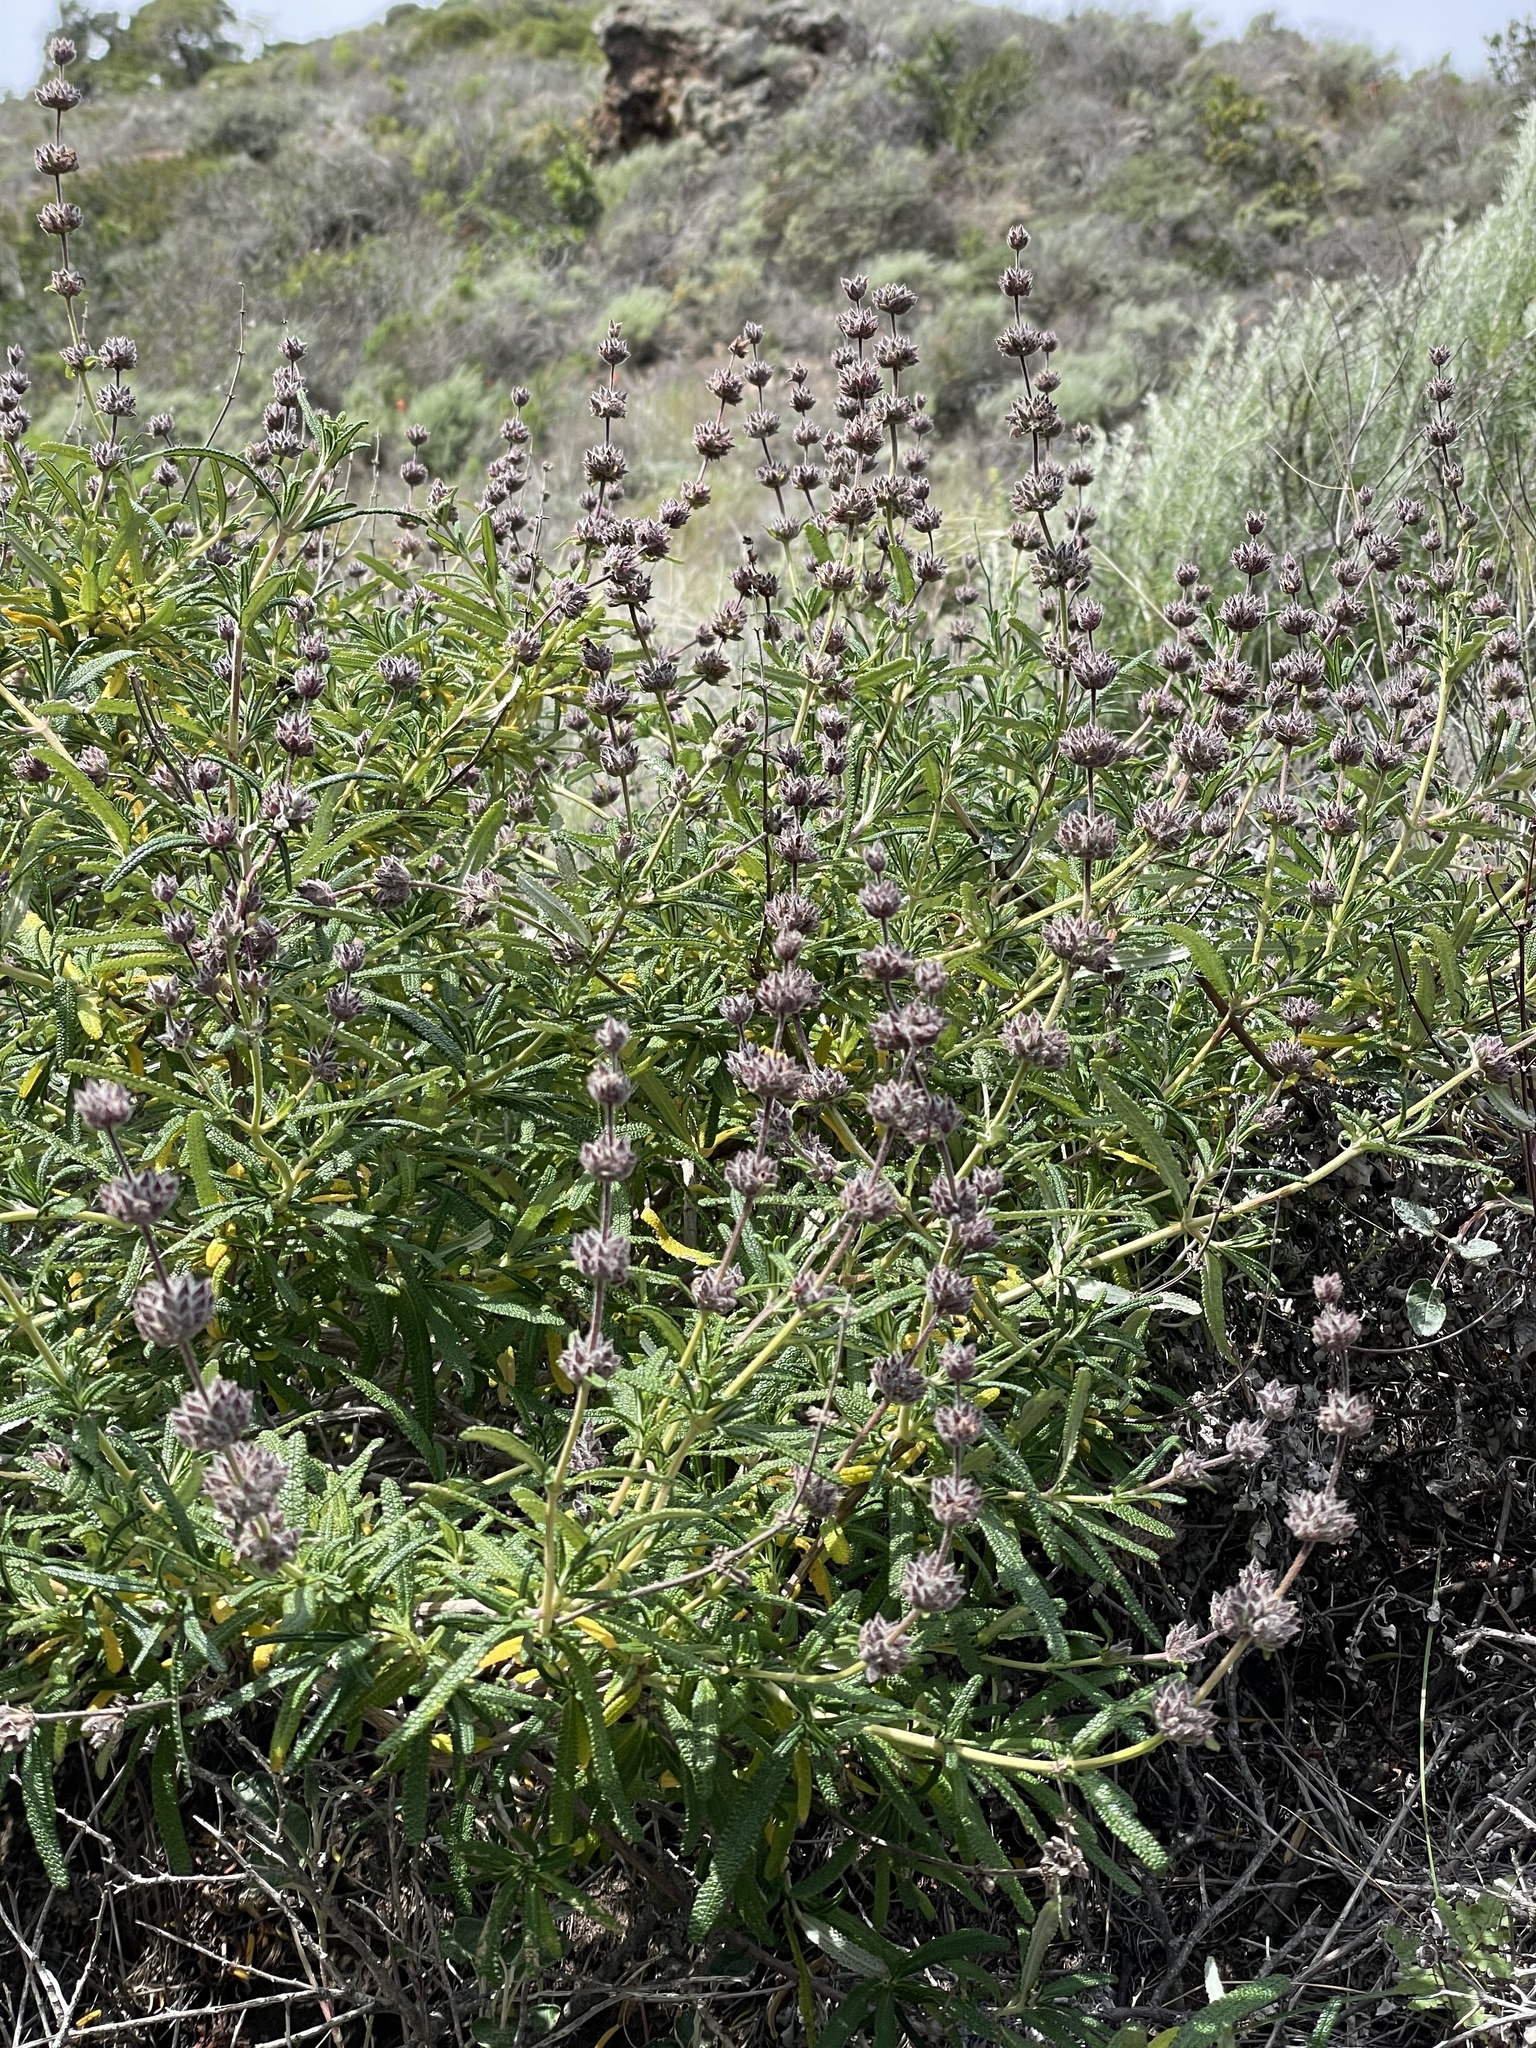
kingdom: Plantae
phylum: Tracheophyta
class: Magnoliopsida
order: Lamiales
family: Lamiaceae
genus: Salvia
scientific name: Salvia brandegeei
